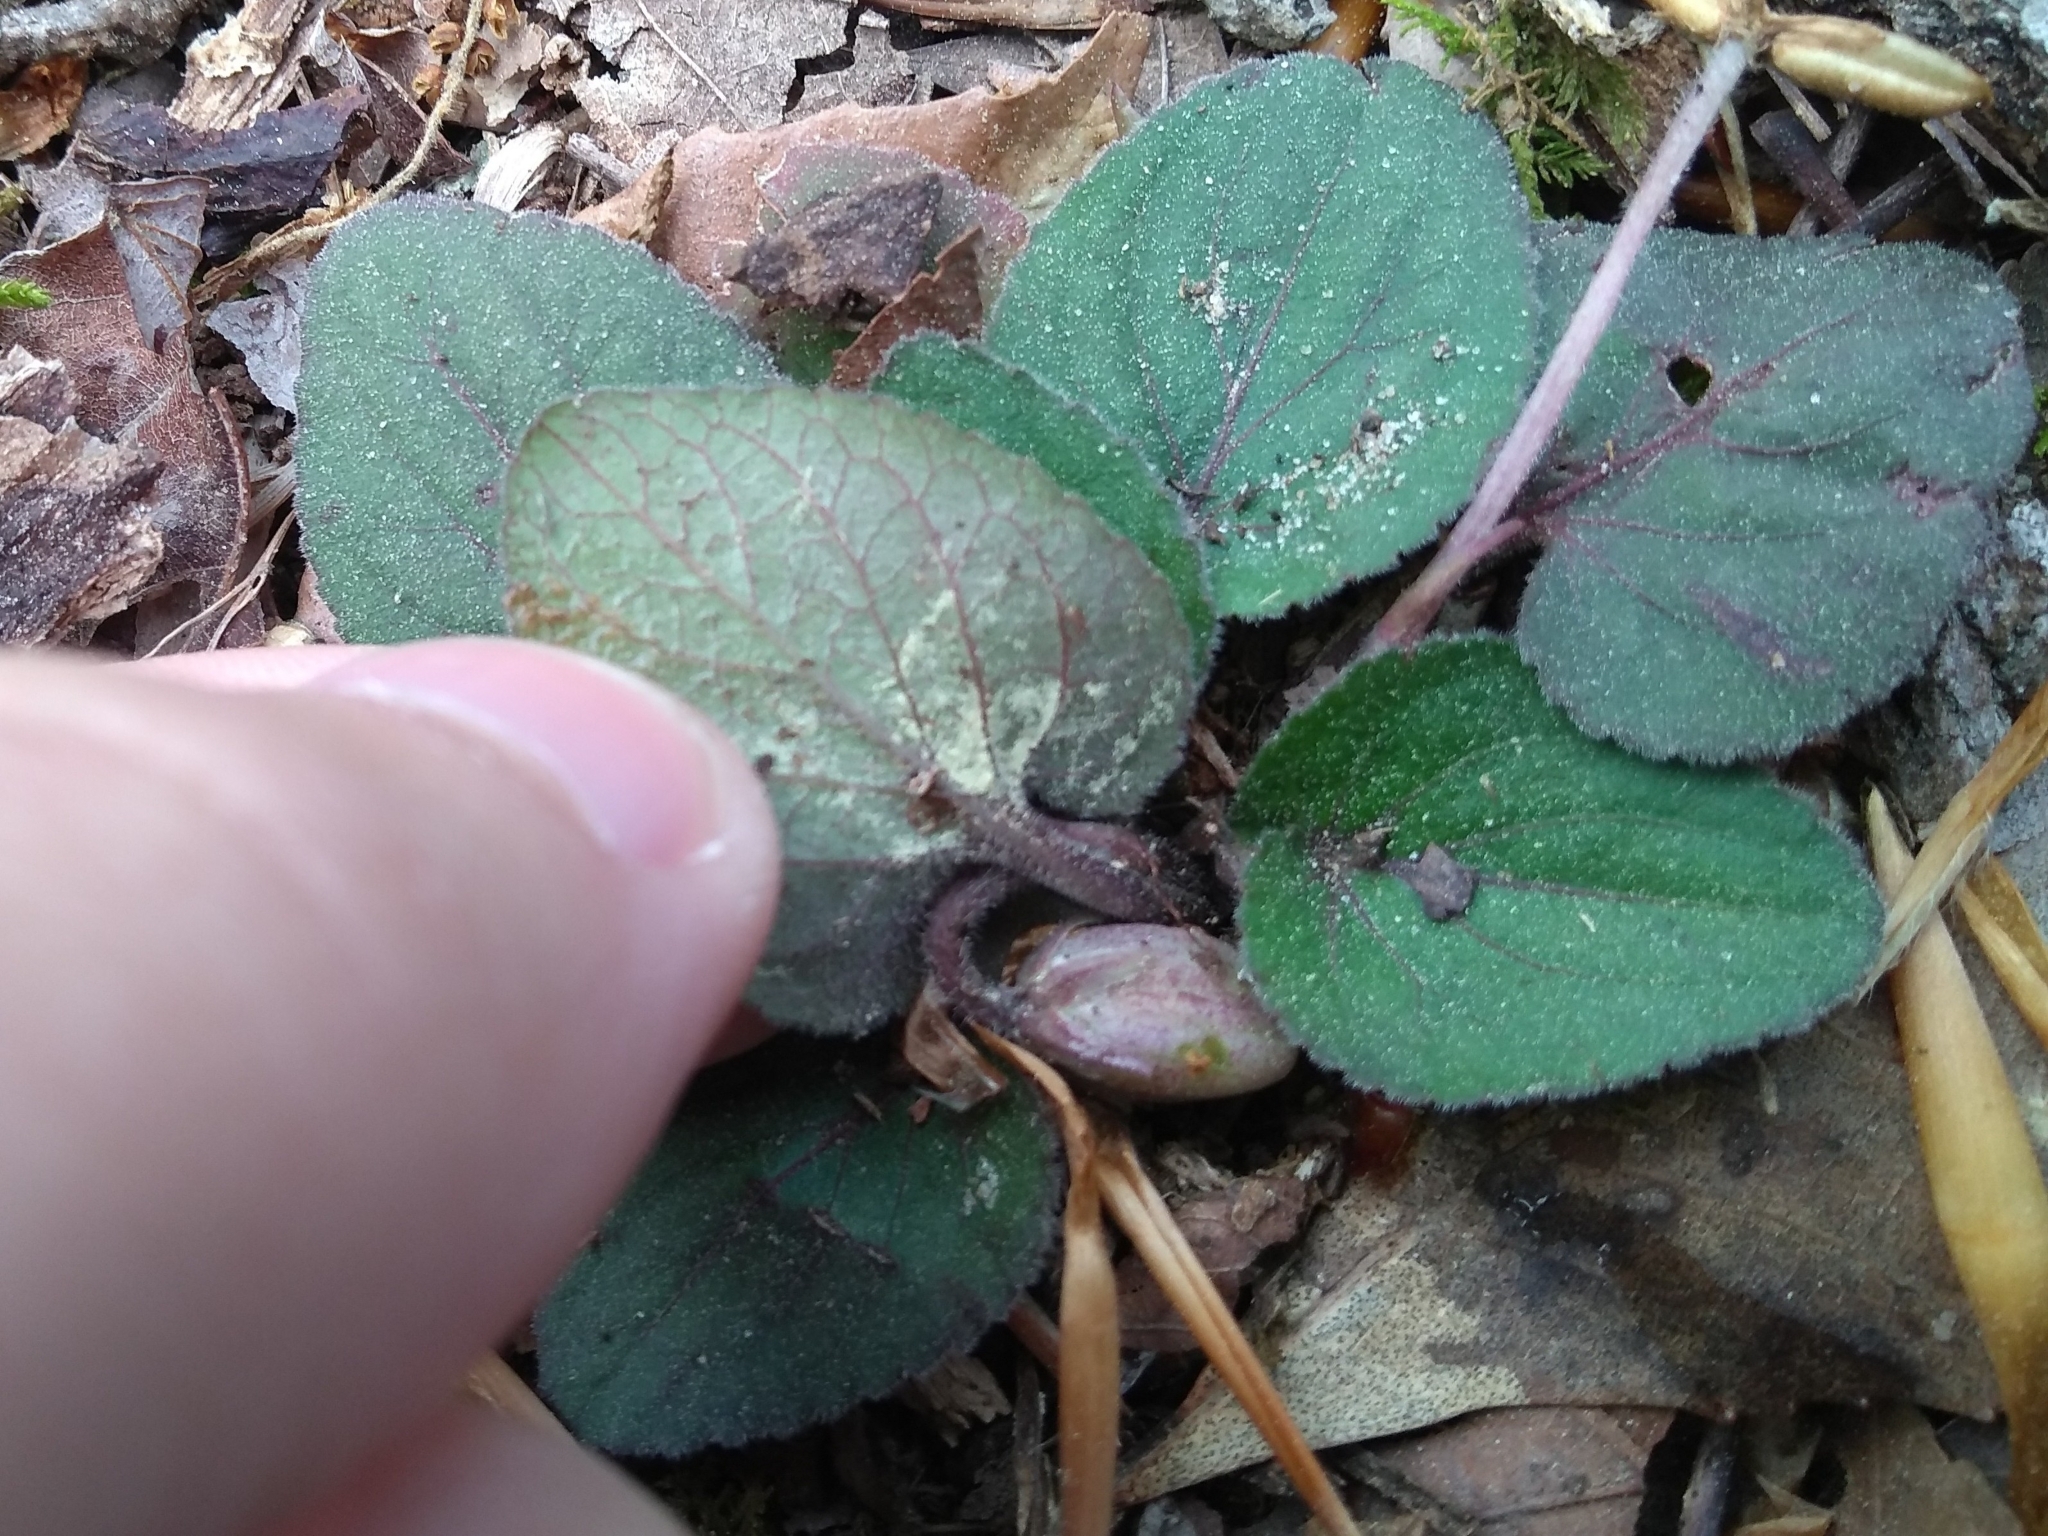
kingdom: Plantae
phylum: Tracheophyta
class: Magnoliopsida
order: Malpighiales
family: Violaceae
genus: Viola
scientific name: Viola villosa
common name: Carolina violet
